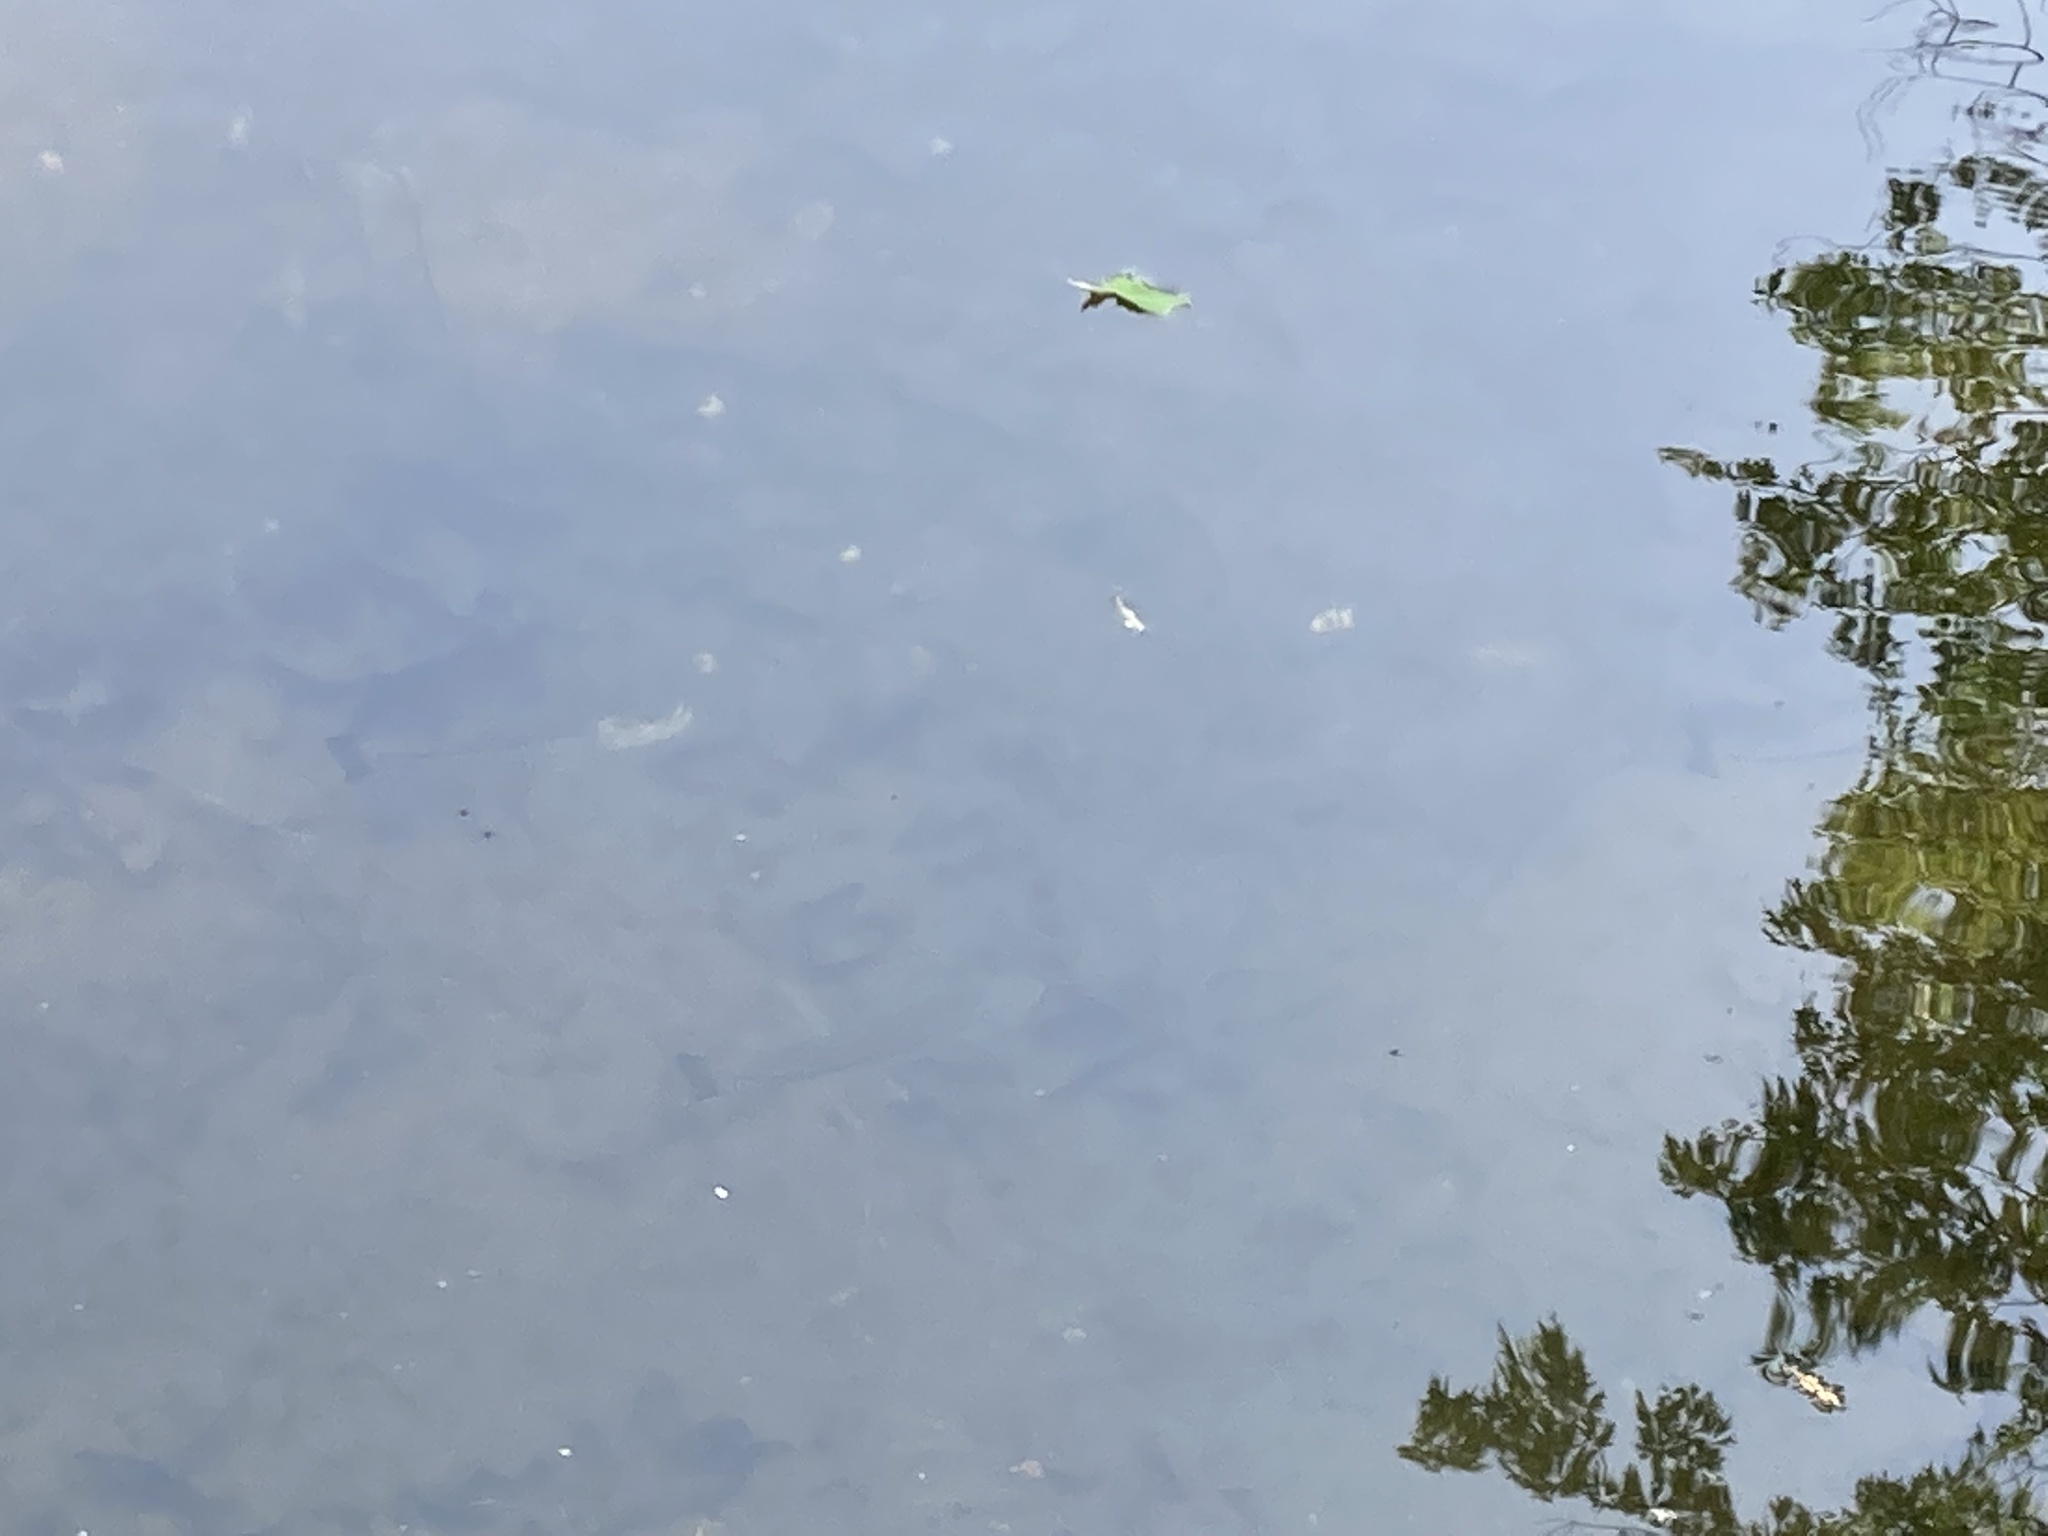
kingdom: Animalia
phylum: Chordata
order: Perciformes
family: Centrarchidae
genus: Micropterus
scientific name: Micropterus
